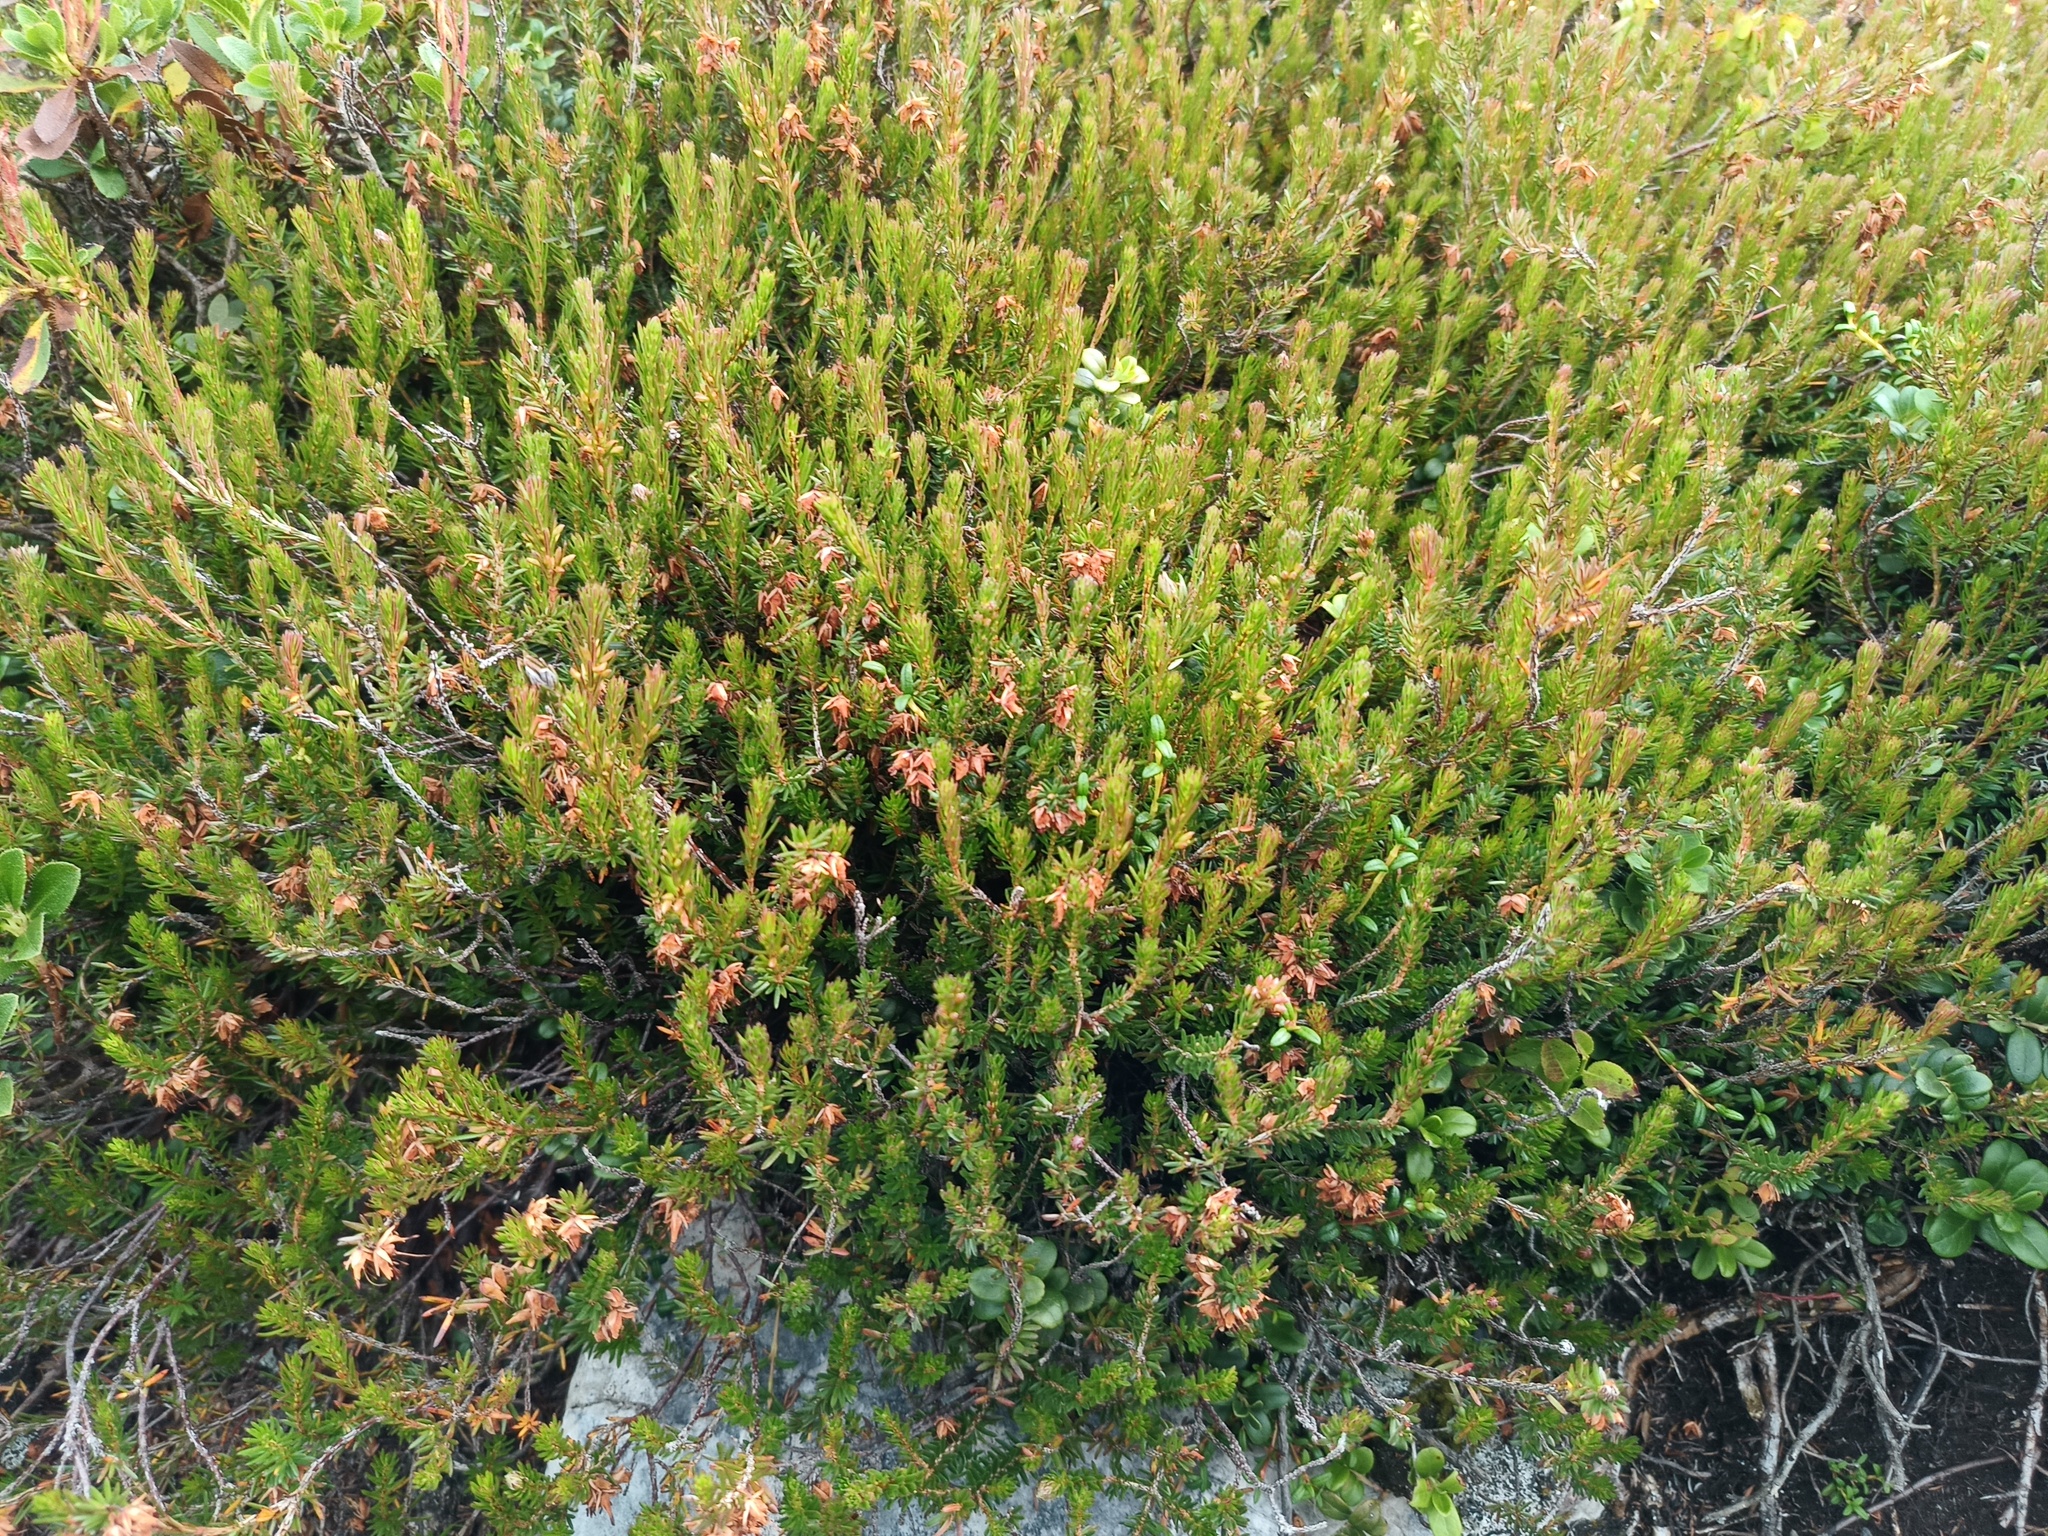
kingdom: Plantae
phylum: Tracheophyta
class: Magnoliopsida
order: Ericales
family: Ericaceae
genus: Erica
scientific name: Erica carnea
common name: Winter heath
